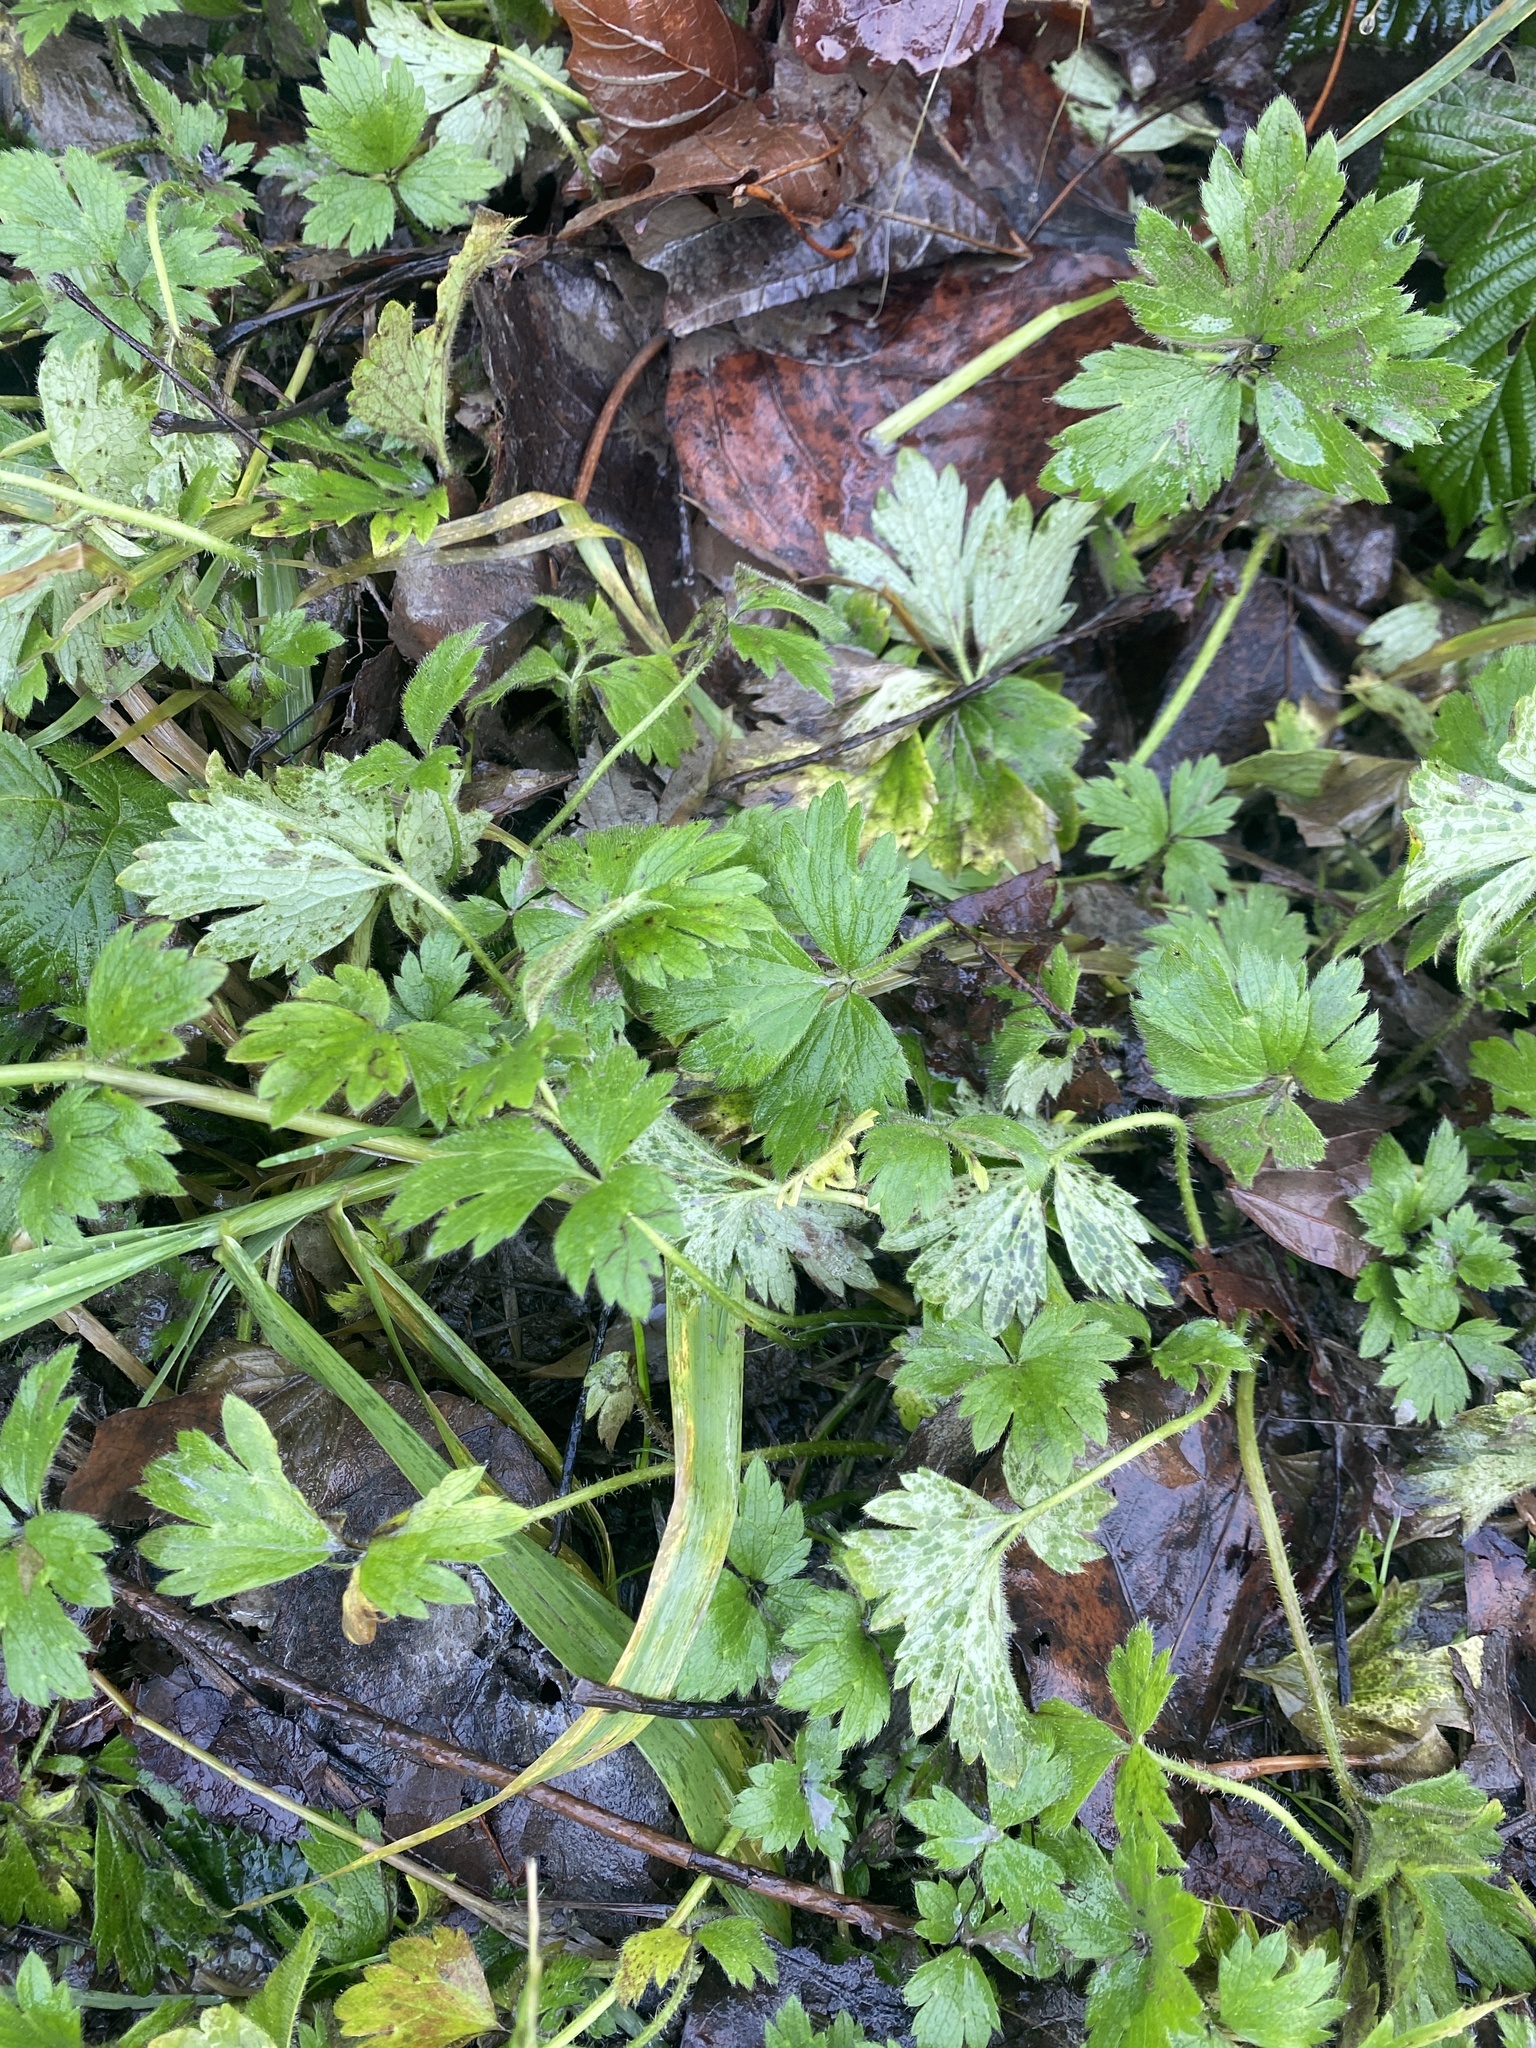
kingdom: Plantae
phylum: Tracheophyta
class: Magnoliopsida
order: Ranunculales
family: Ranunculaceae
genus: Ranunculus
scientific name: Ranunculus repens
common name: Creeping buttercup
